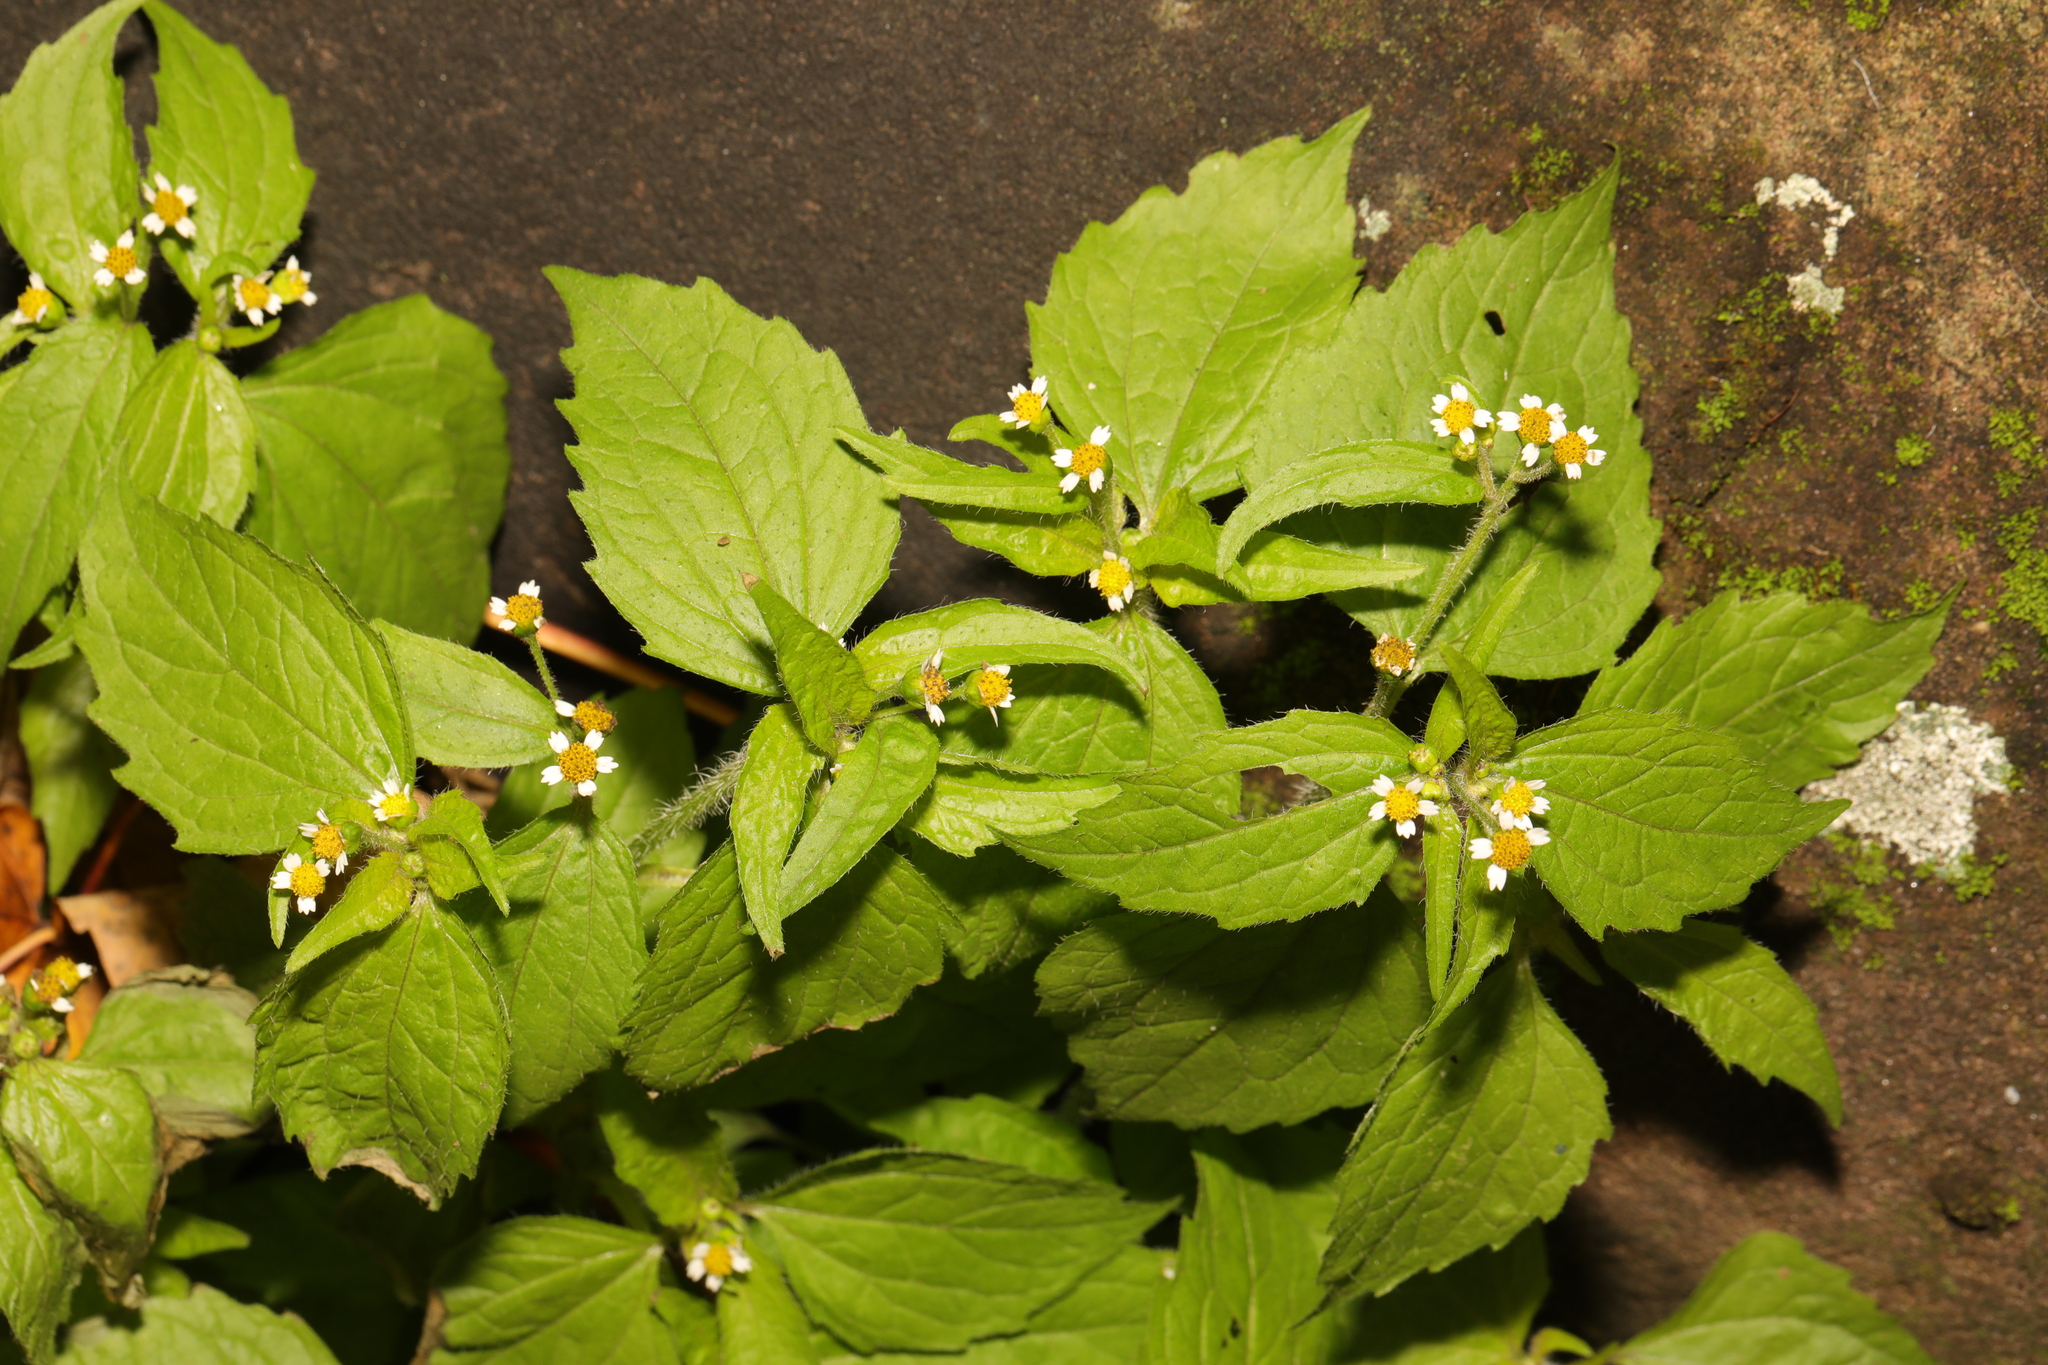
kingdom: Plantae
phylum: Tracheophyta
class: Magnoliopsida
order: Asterales
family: Asteraceae
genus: Galinsoga
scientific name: Galinsoga quadriradiata
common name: Shaggy soldier
